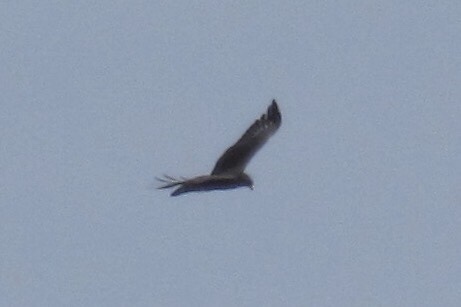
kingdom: Animalia
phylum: Chordata
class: Aves
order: Accipitriformes
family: Accipitridae
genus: Buteo
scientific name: Buteo albonotatus
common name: Zone-tailed hawk
